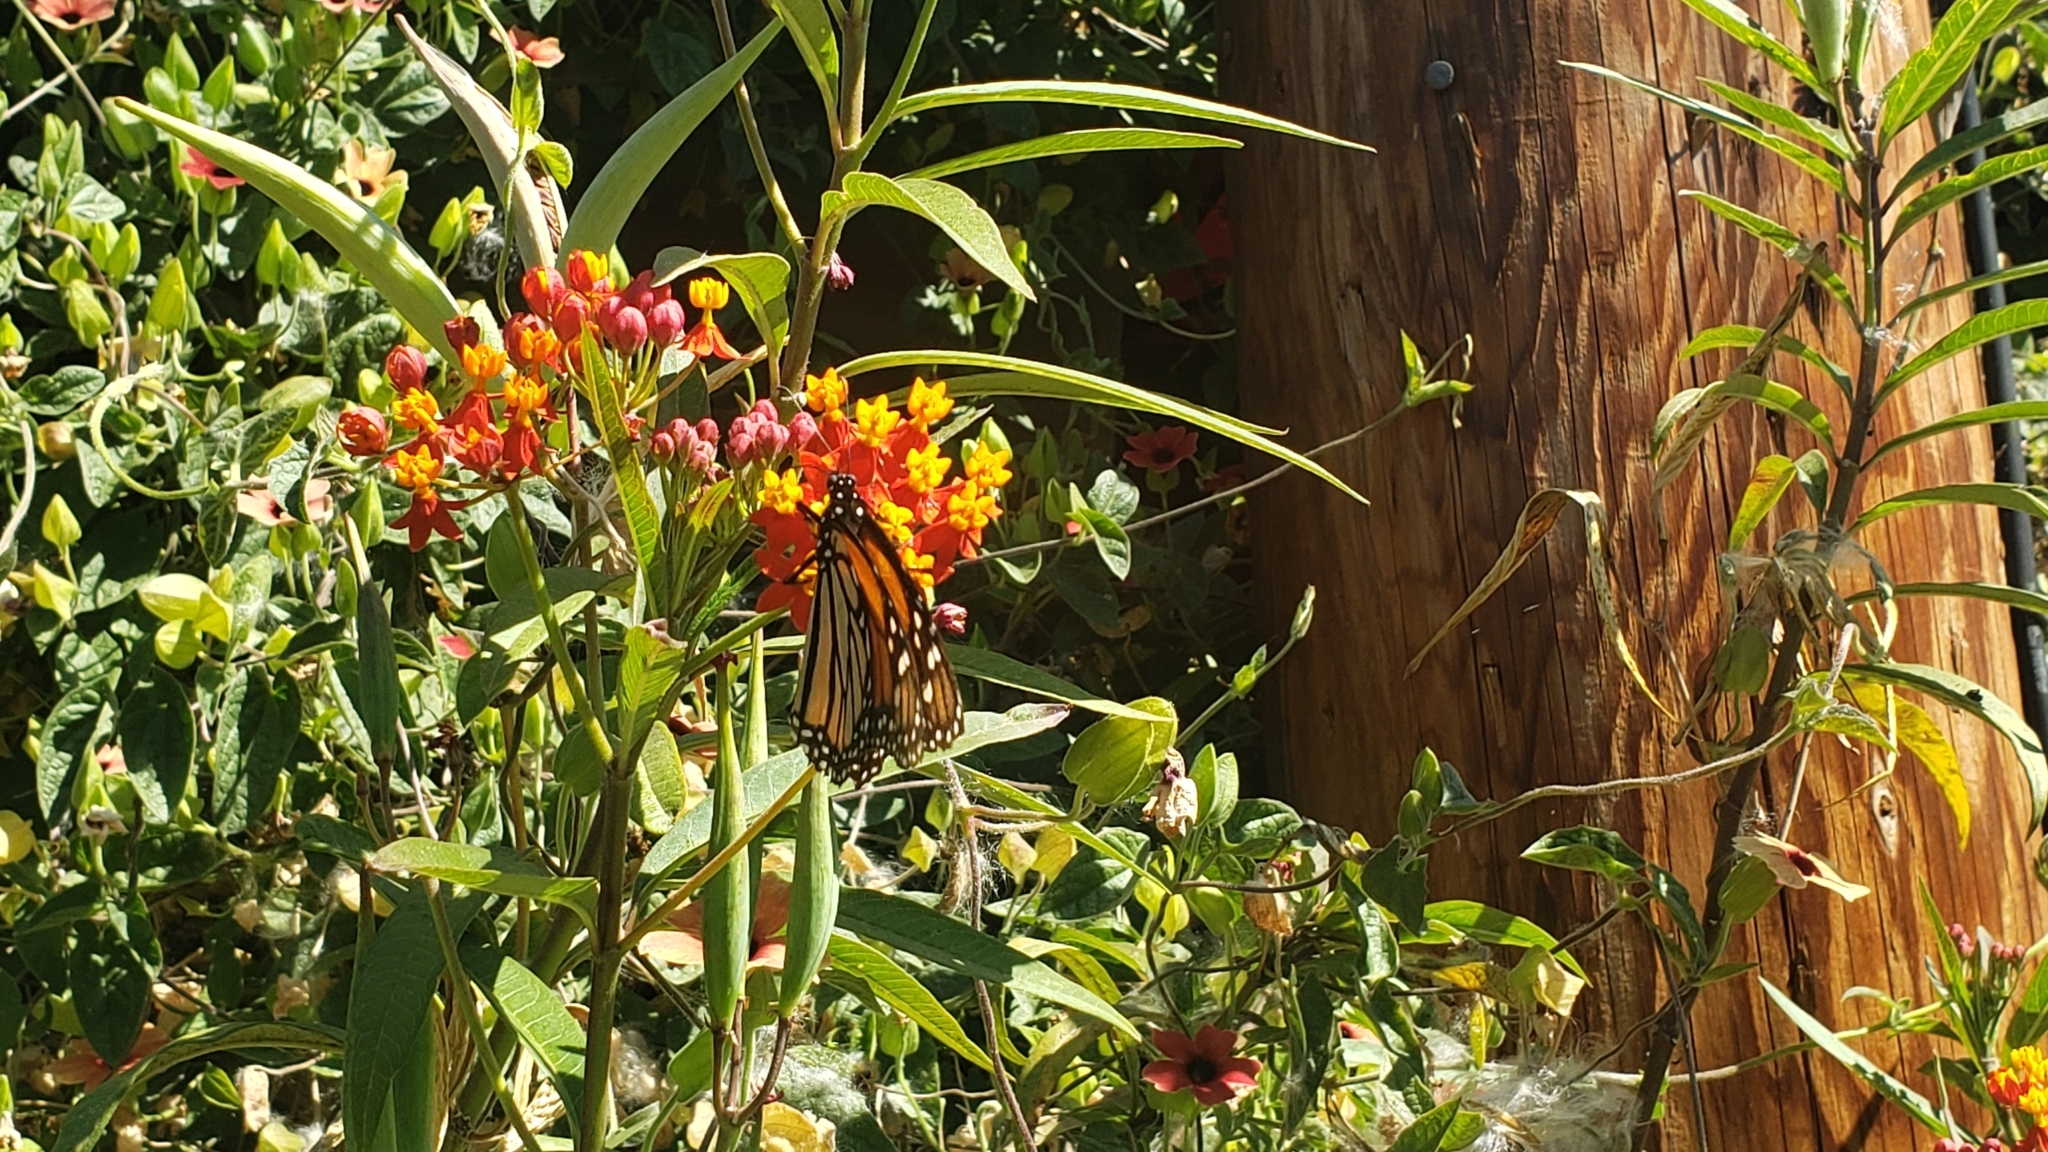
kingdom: Animalia
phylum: Arthropoda
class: Insecta
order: Lepidoptera
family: Nymphalidae
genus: Danaus
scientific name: Danaus plexippus
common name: Monarch
